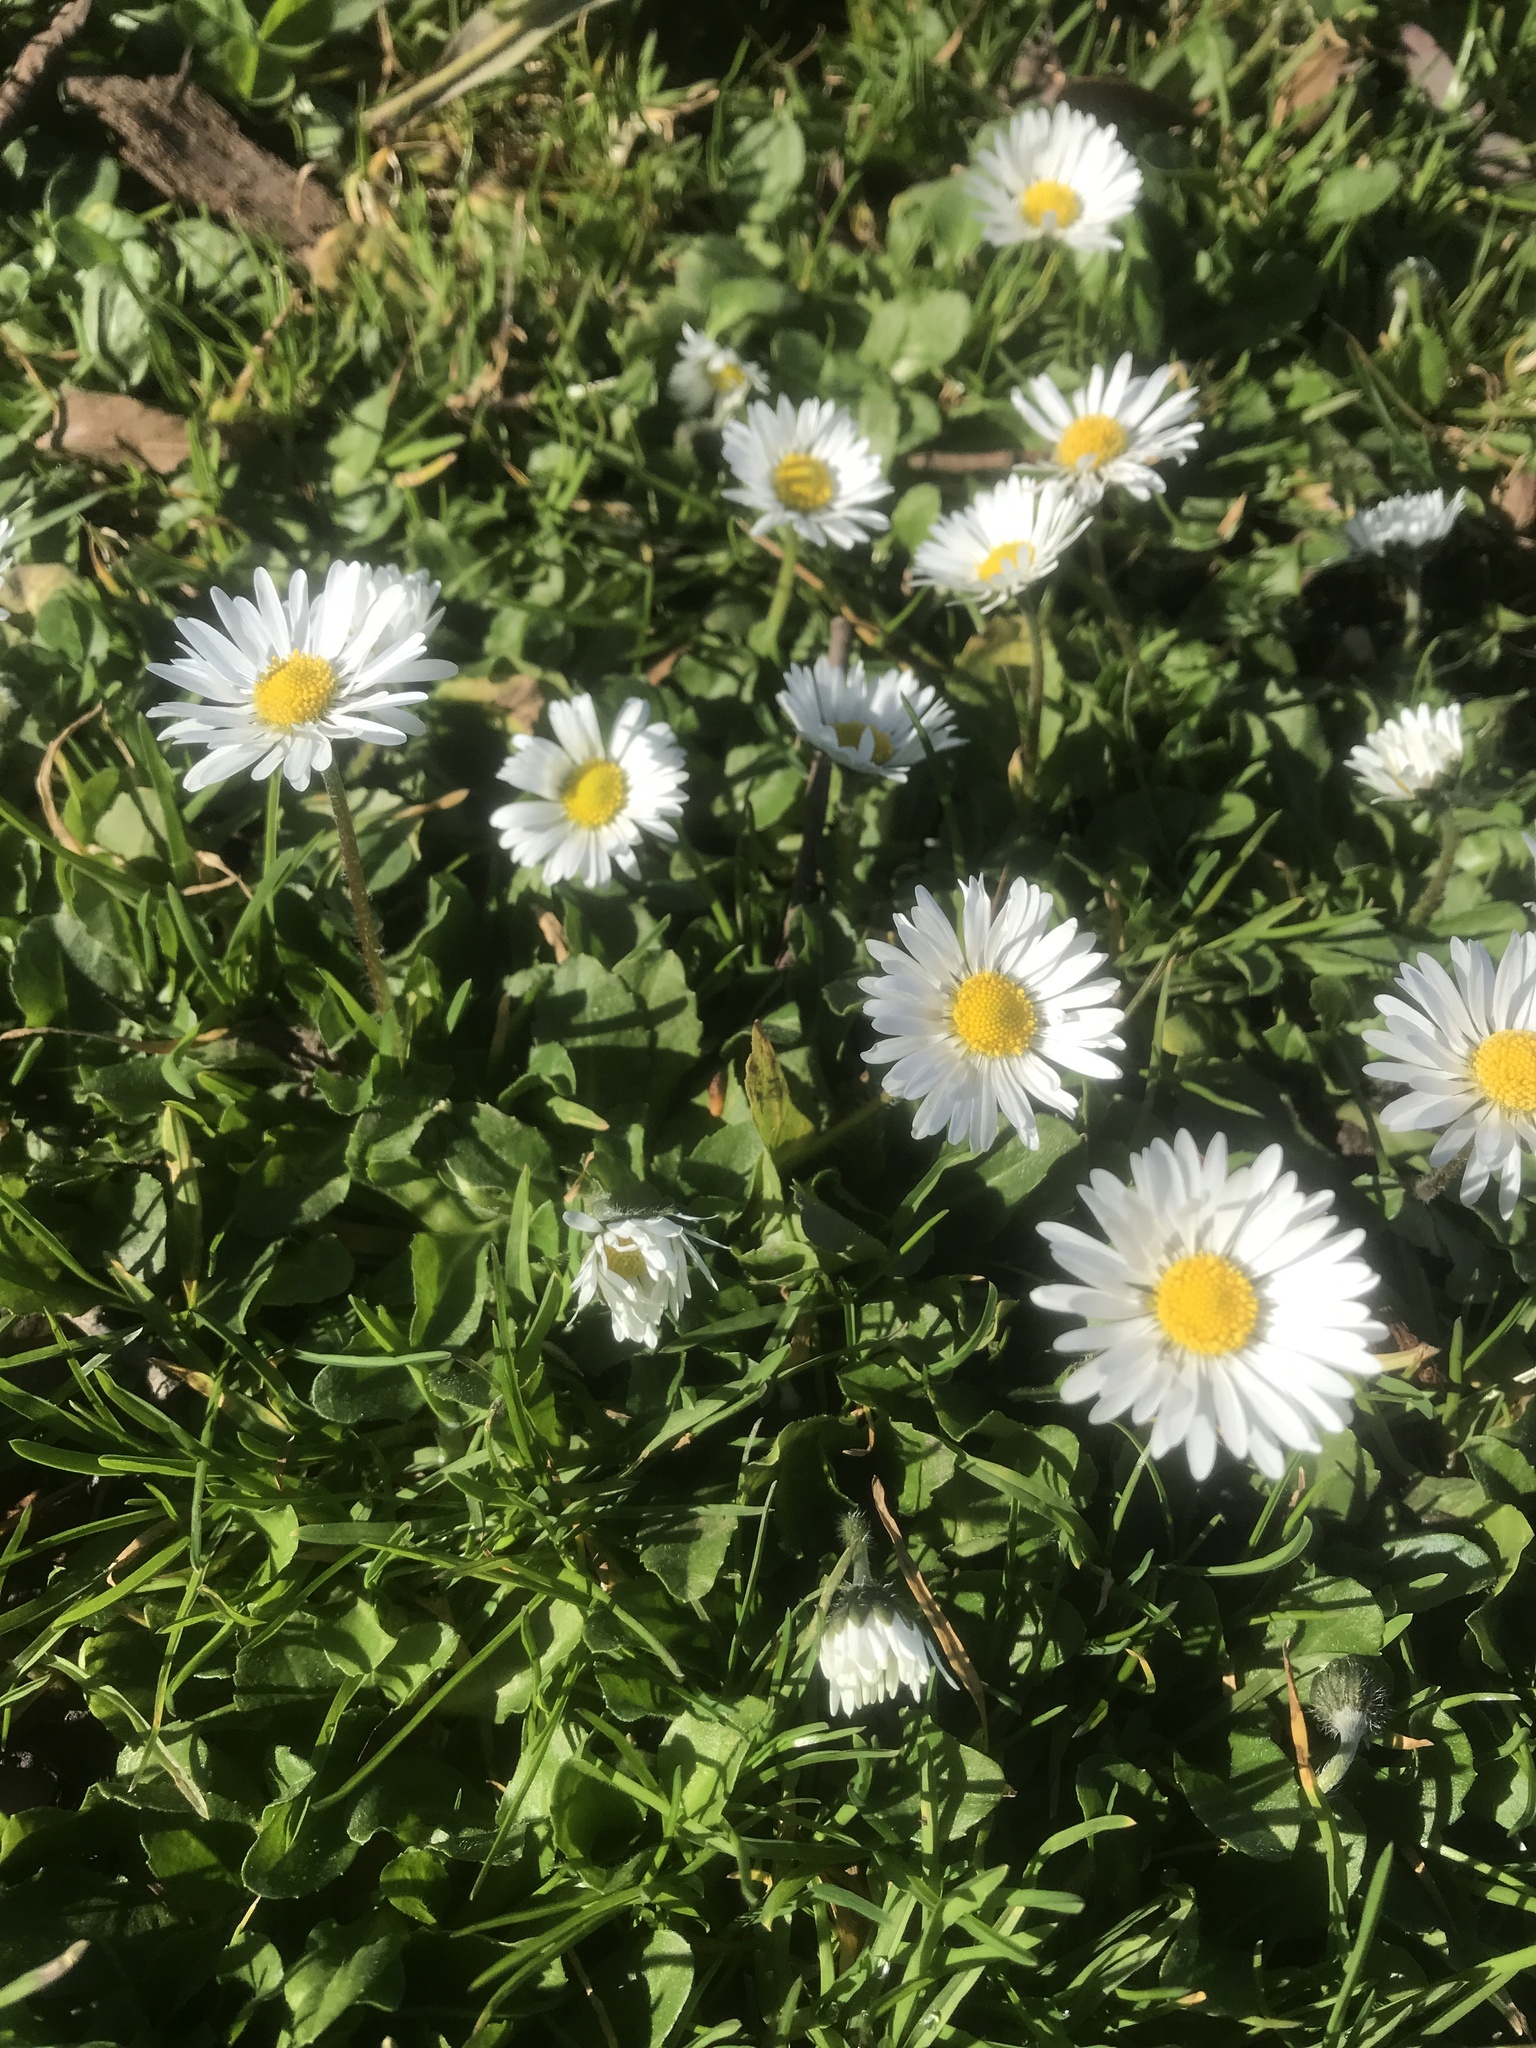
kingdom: Plantae
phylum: Tracheophyta
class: Magnoliopsida
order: Asterales
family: Asteraceae
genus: Bellis
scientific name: Bellis perennis
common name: Lawndaisy
